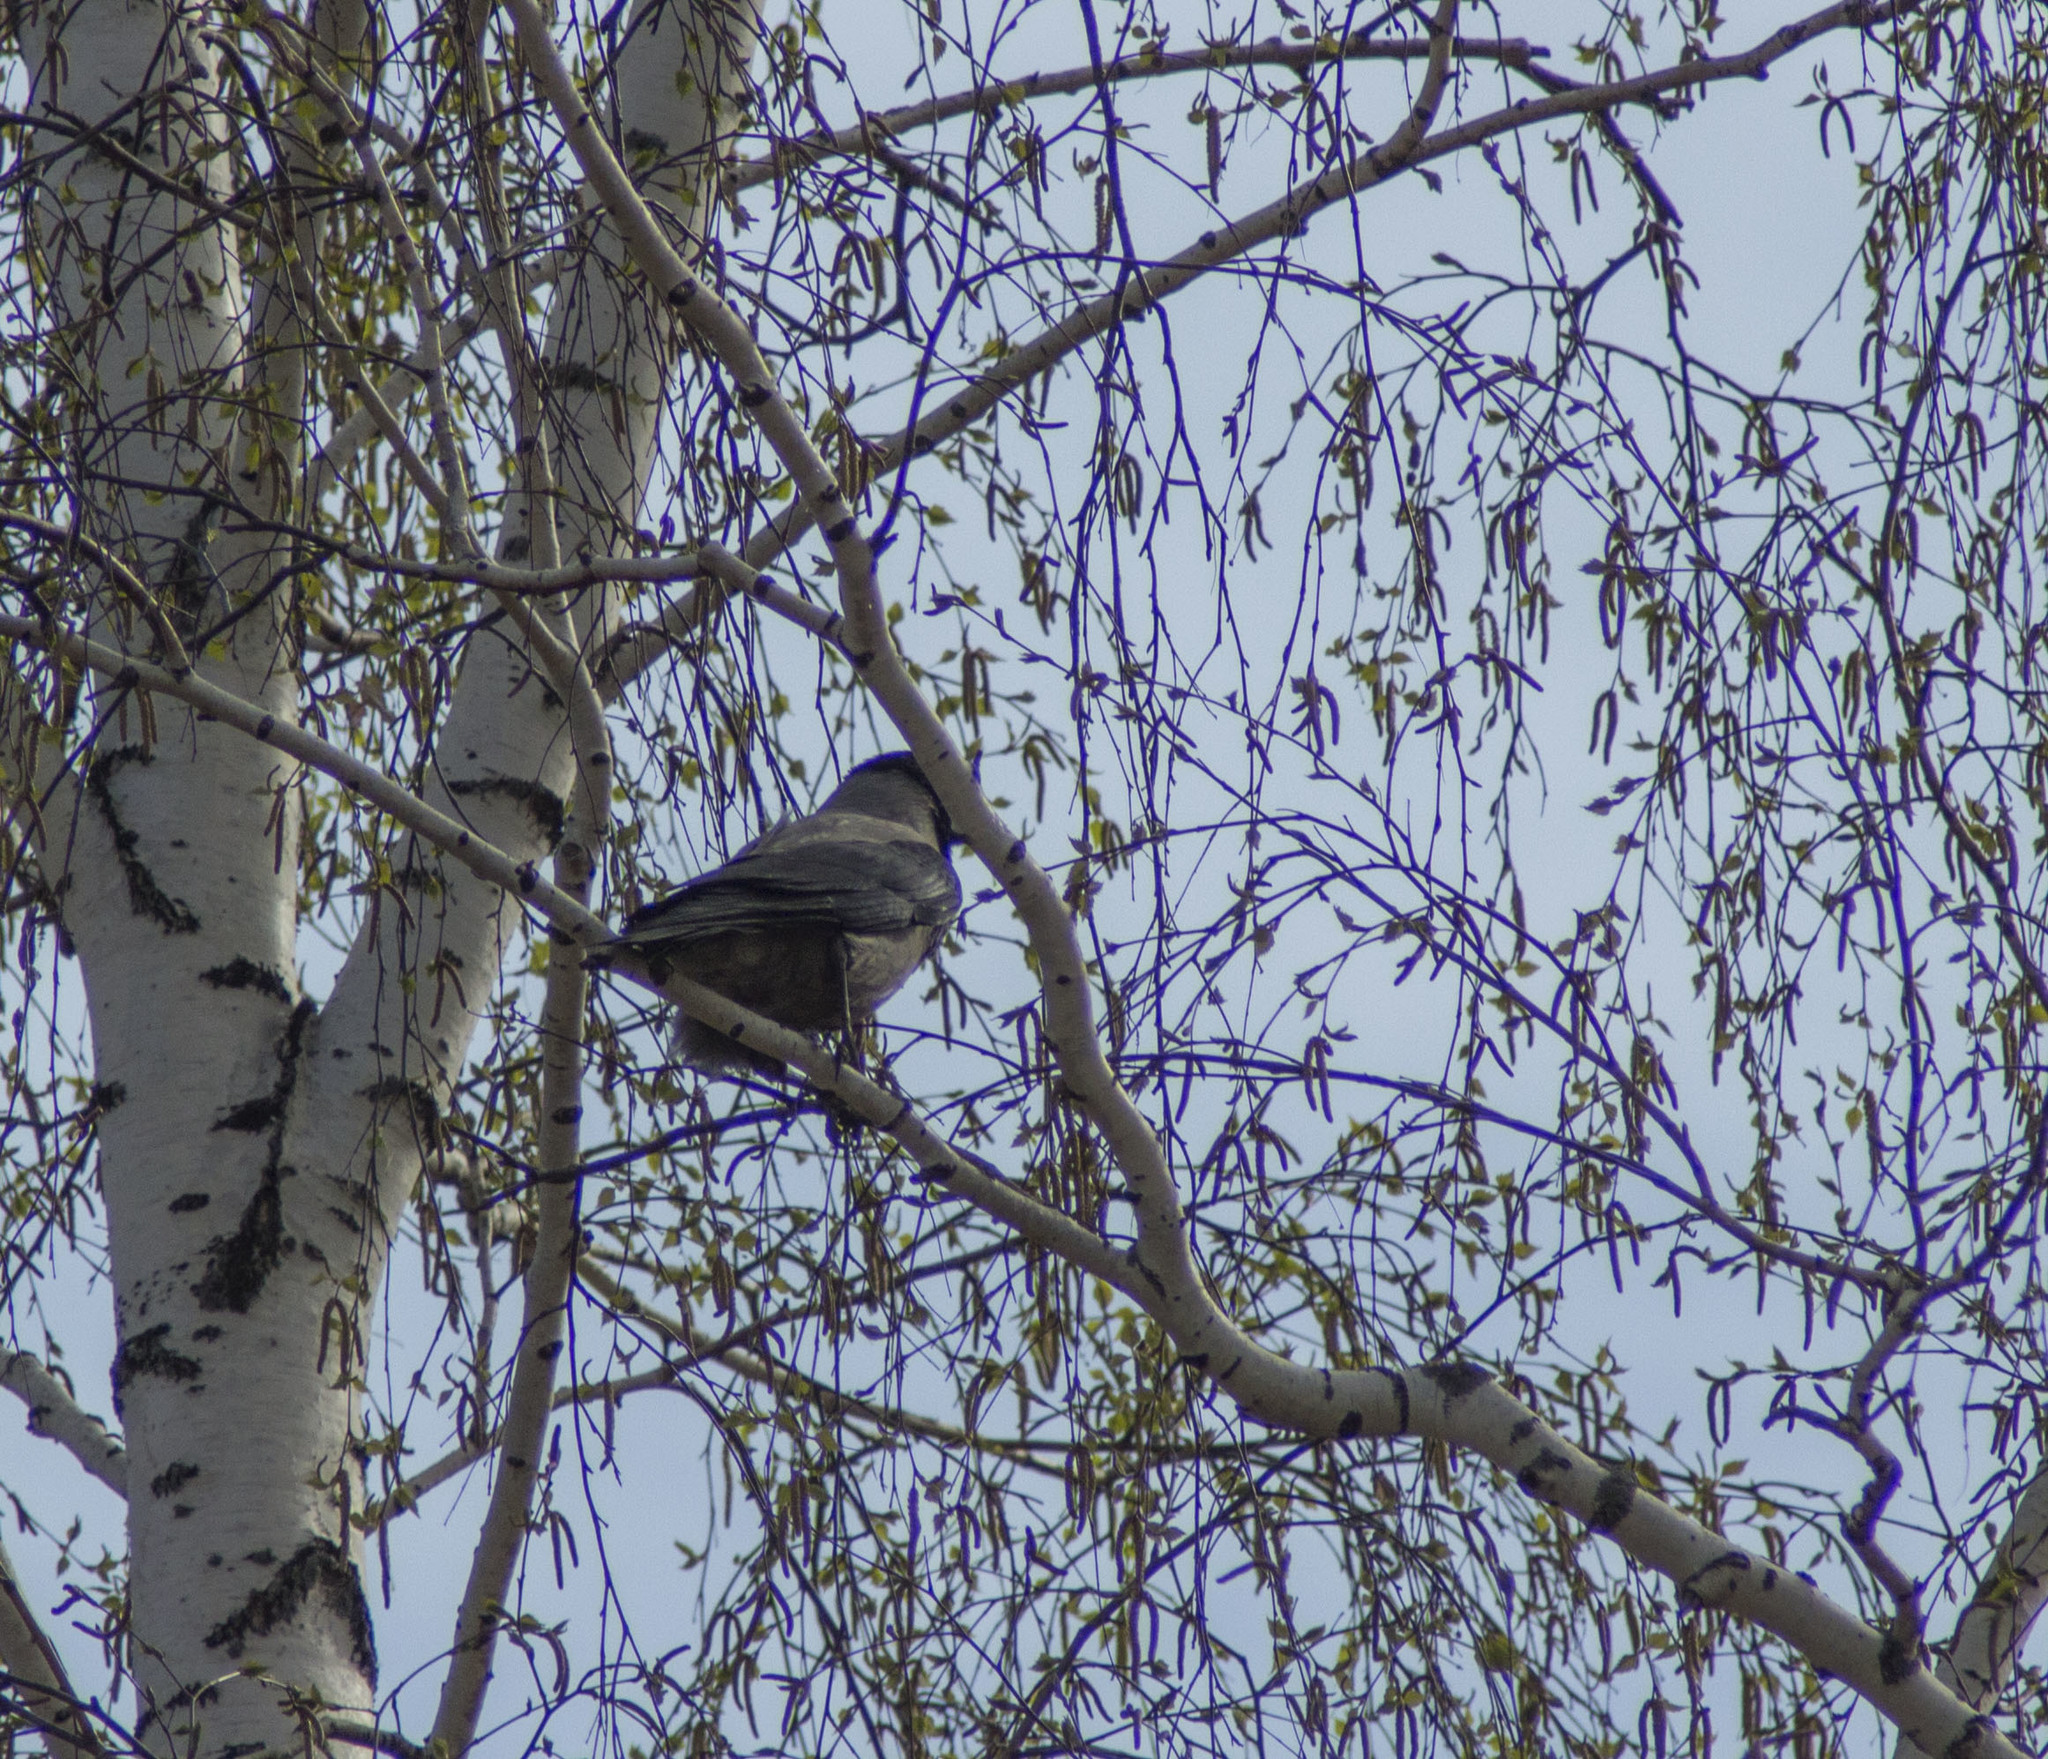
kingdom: Animalia
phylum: Chordata
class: Aves
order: Passeriformes
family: Corvidae
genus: Corvus
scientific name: Corvus cornix
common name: Hooded crow
